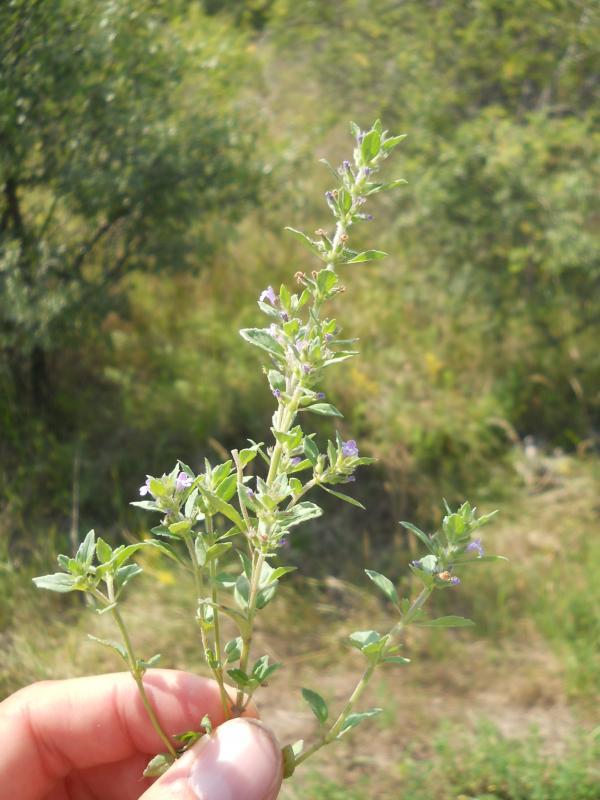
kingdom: Plantae
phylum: Tracheophyta
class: Magnoliopsida
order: Lamiales
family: Lamiaceae
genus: Clinopodium
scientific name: Clinopodium acinos
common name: Basil thyme
